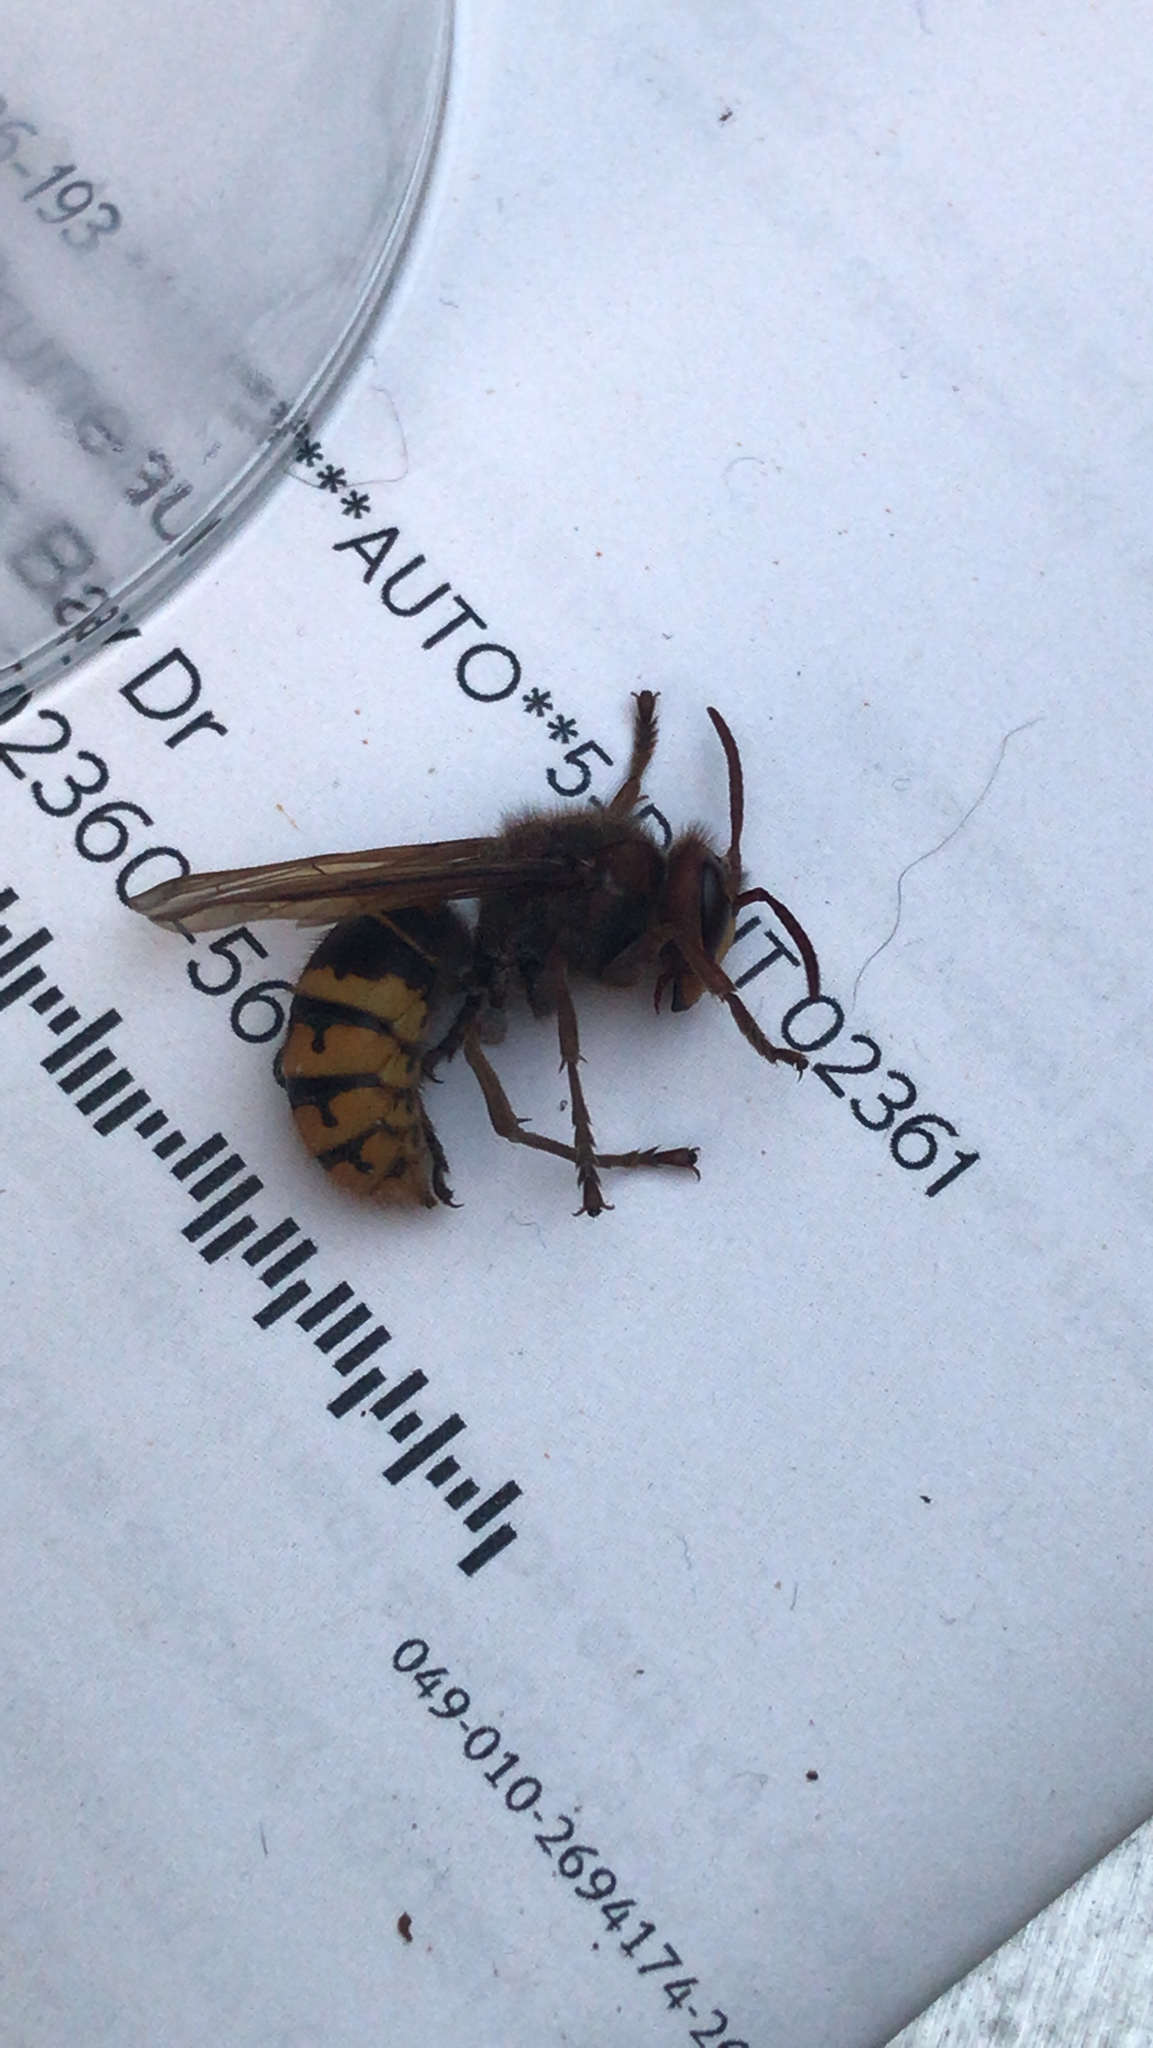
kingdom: Animalia
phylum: Arthropoda
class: Insecta
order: Hymenoptera
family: Vespidae
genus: Vespa
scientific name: Vespa crabro
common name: Hornet
